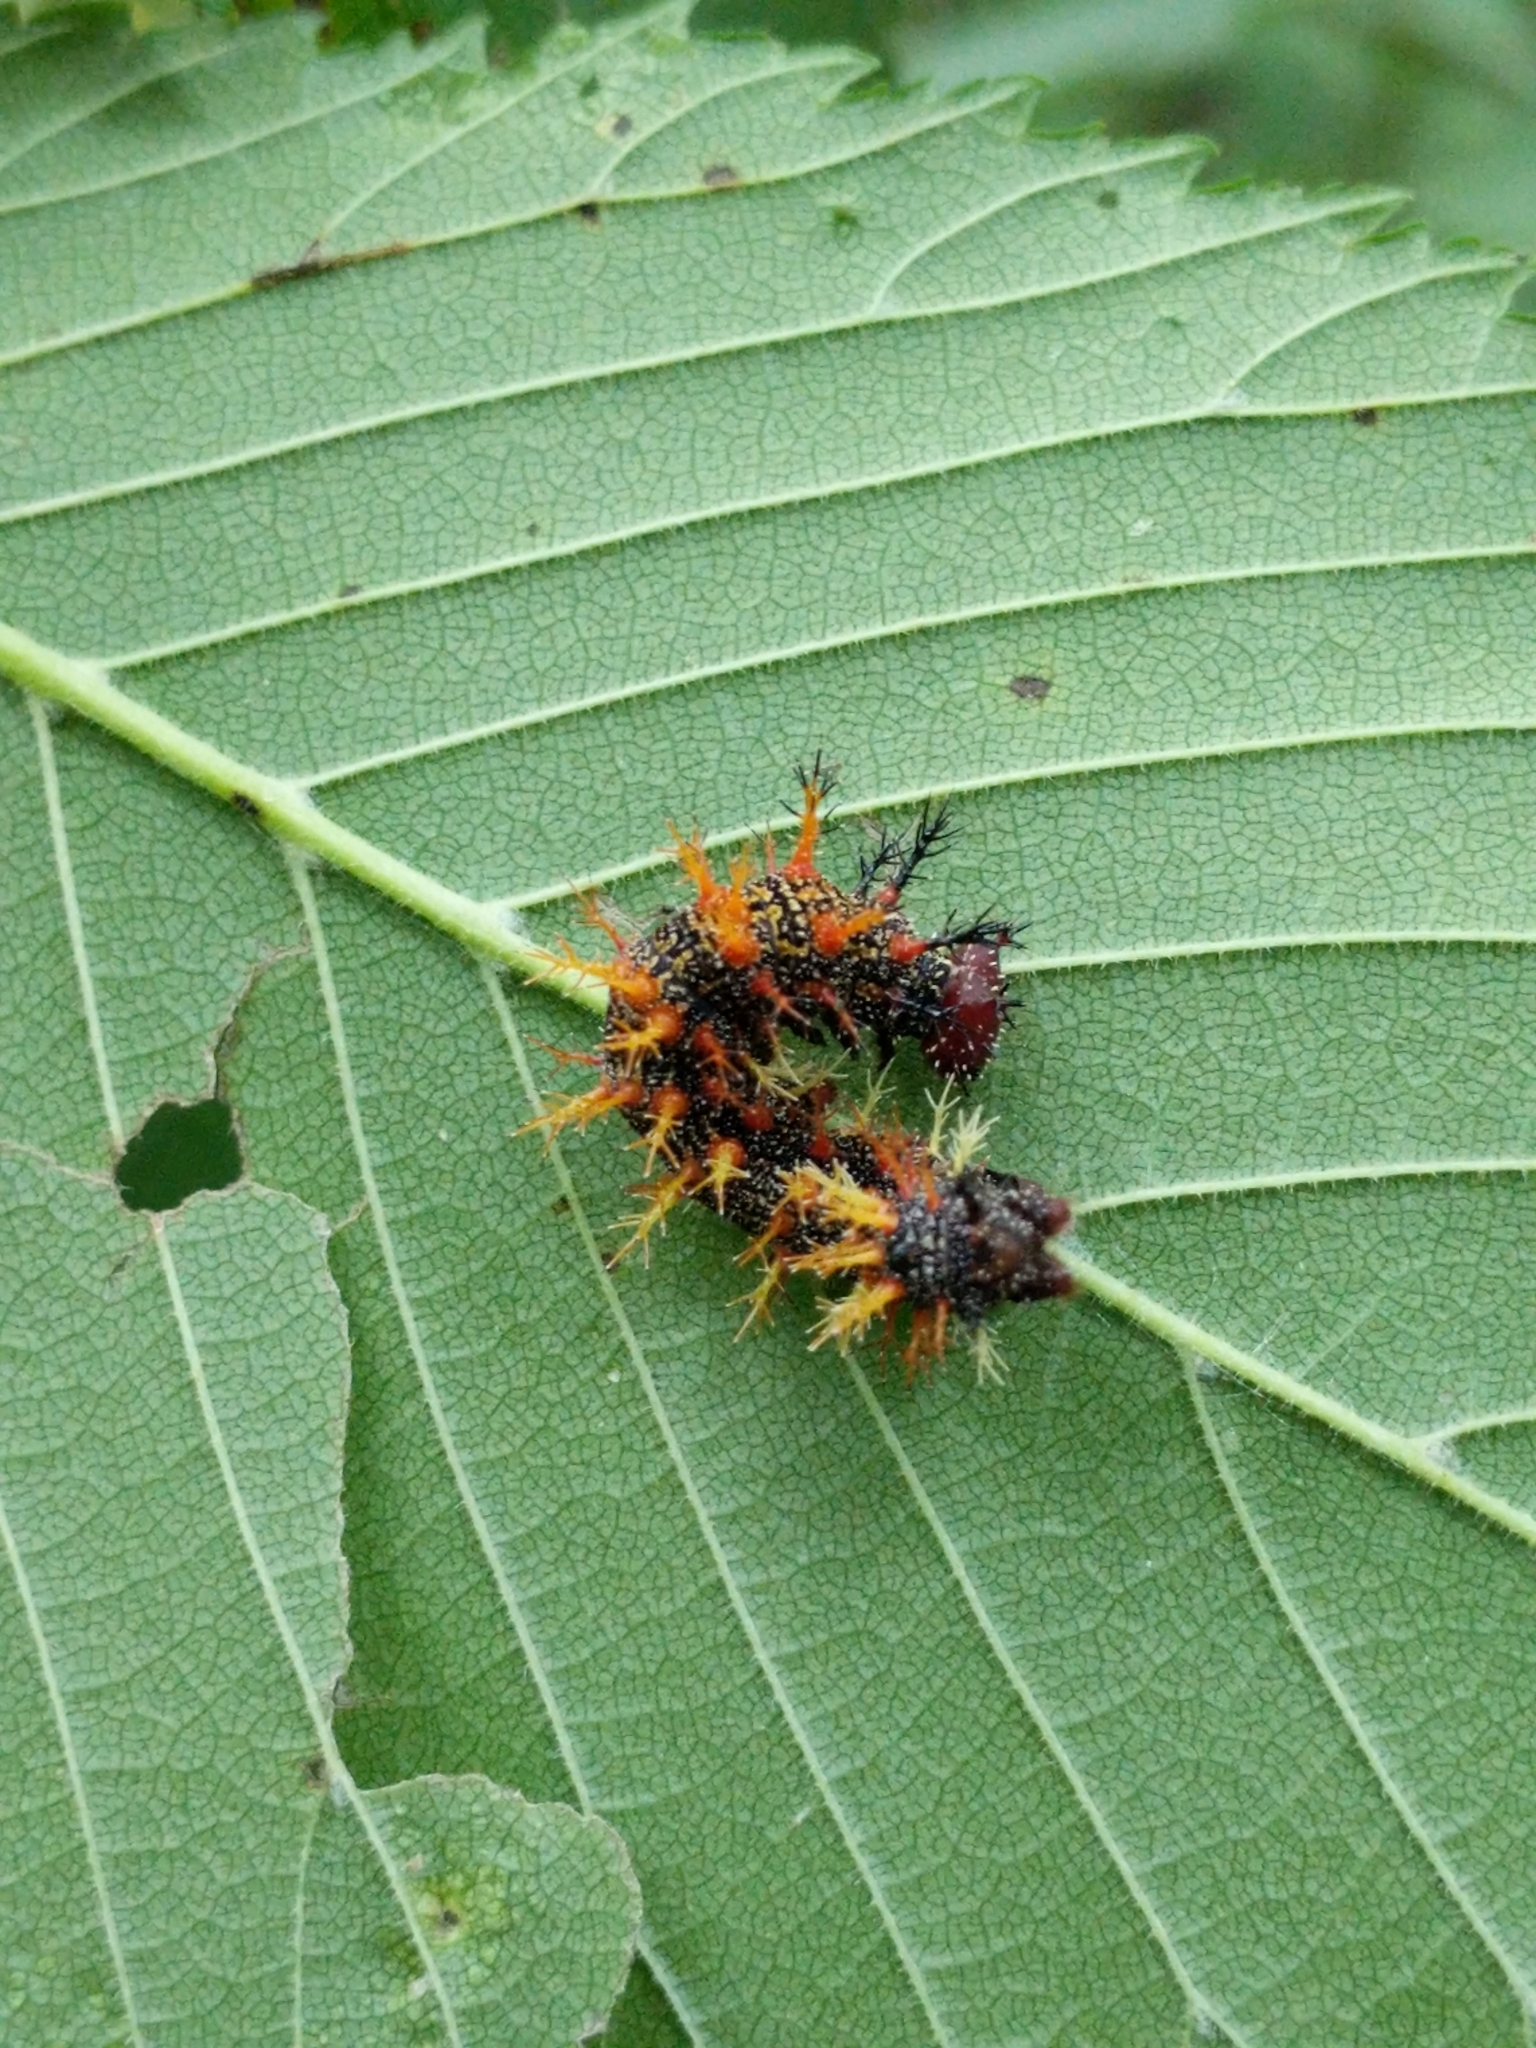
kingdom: Animalia
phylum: Arthropoda
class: Insecta
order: Lepidoptera
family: Nymphalidae
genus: Polygonia
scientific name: Polygonia interrogationis
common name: Question mark
